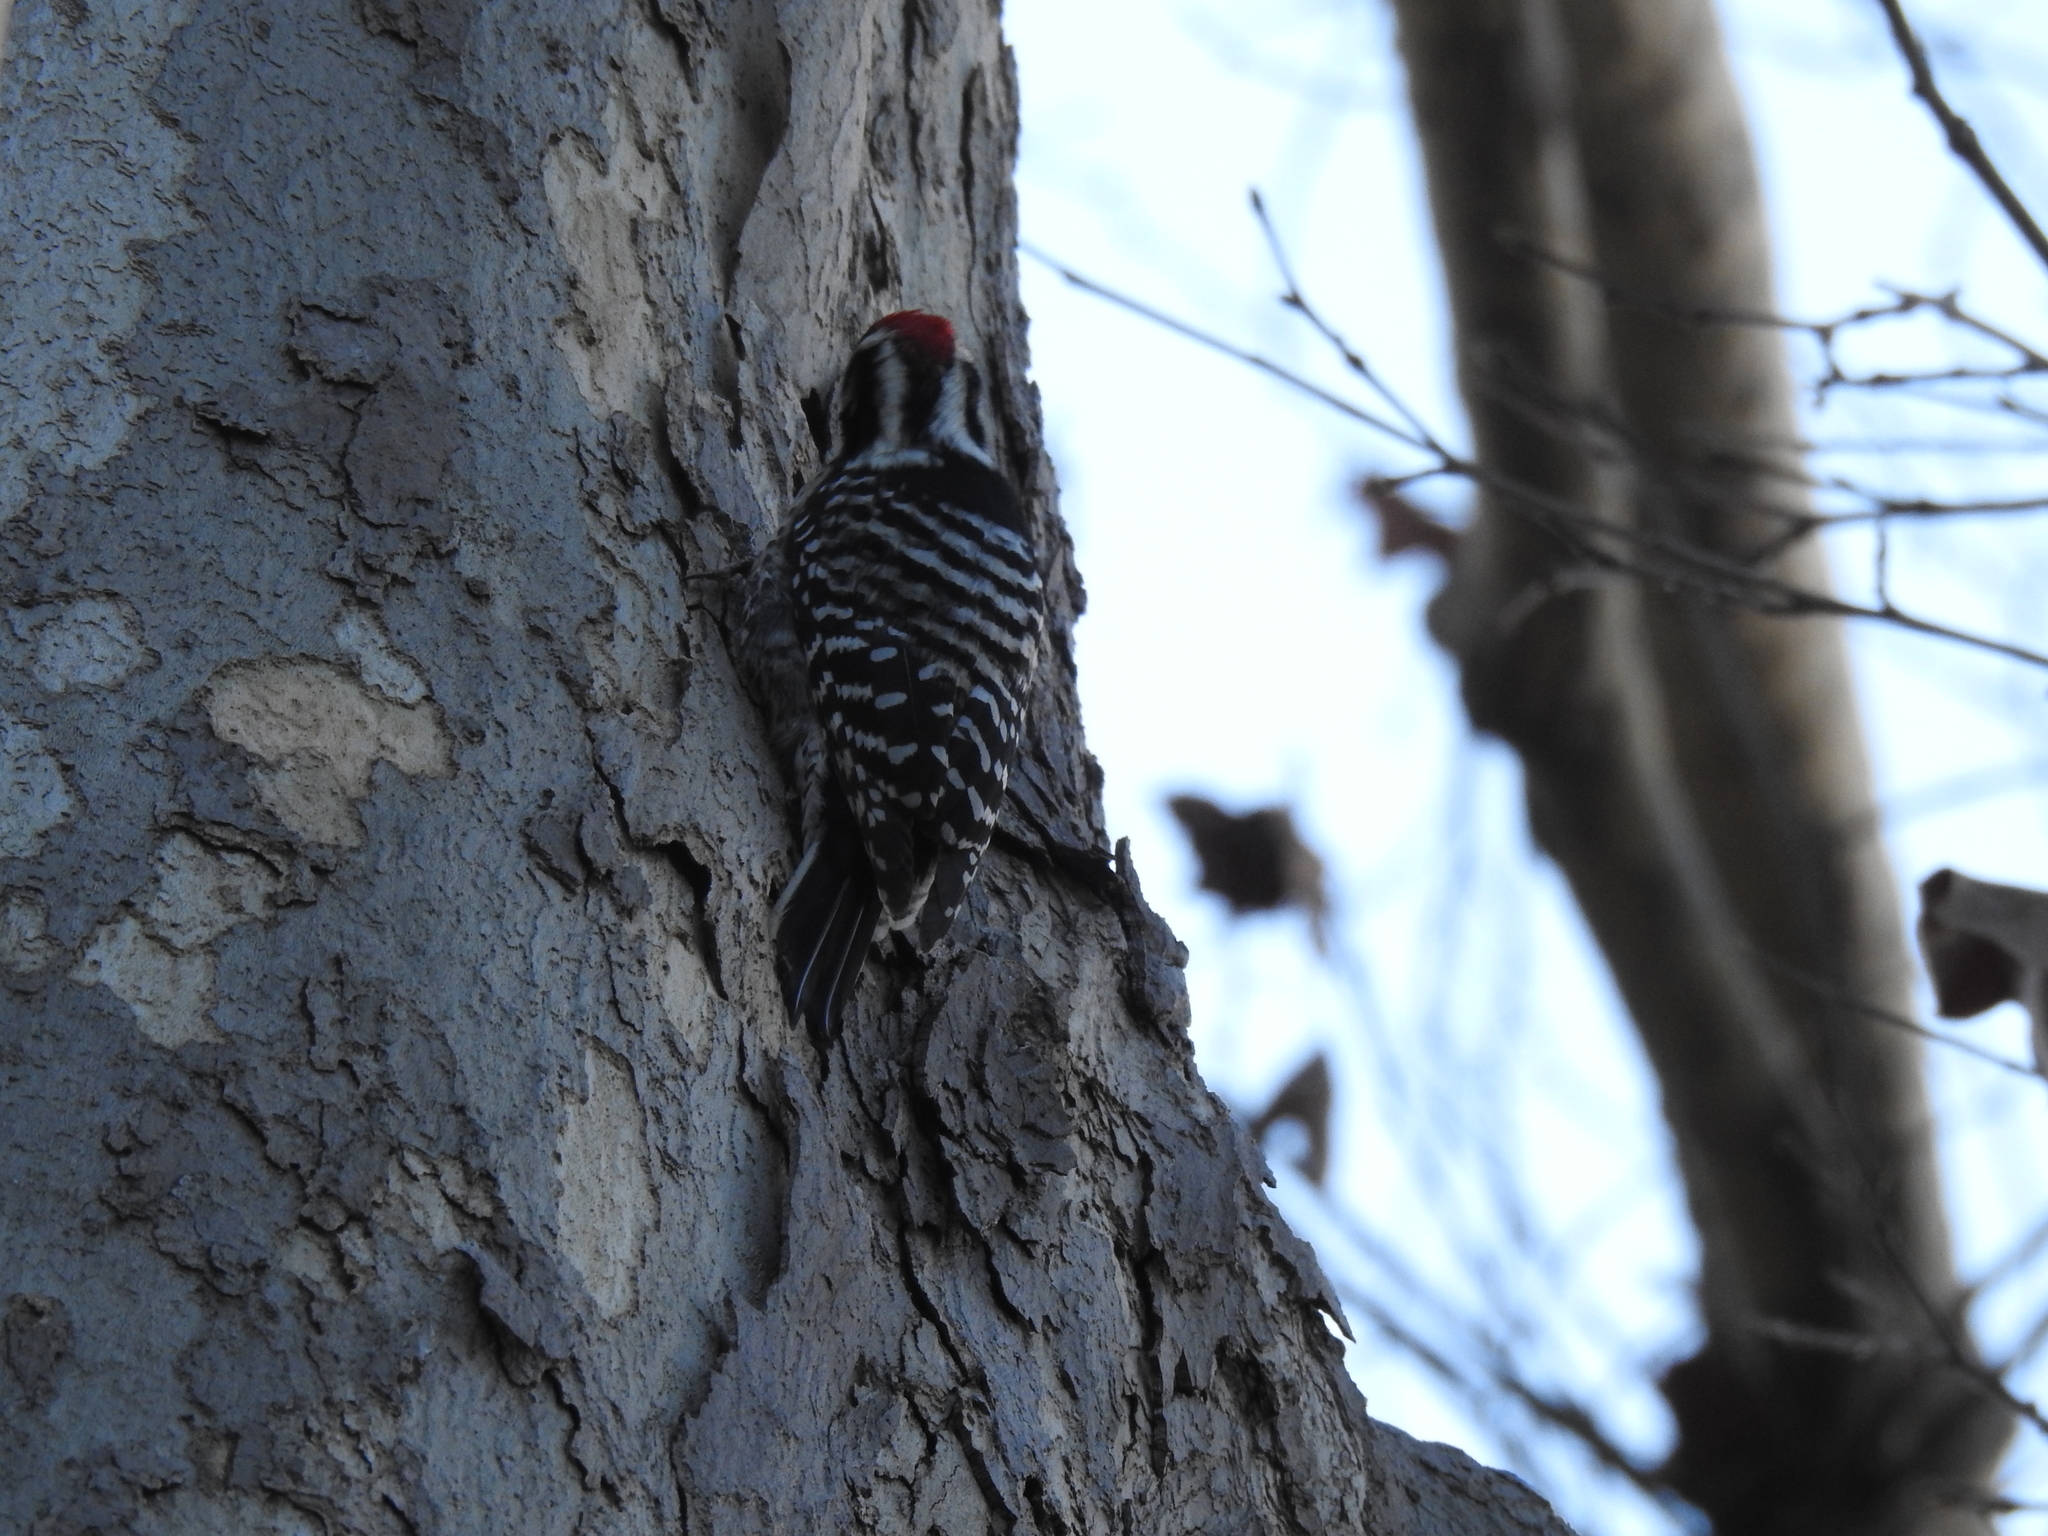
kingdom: Animalia
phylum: Chordata
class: Aves
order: Piciformes
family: Picidae
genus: Dryobates
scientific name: Dryobates nuttallii
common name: Nuttall's woodpecker
